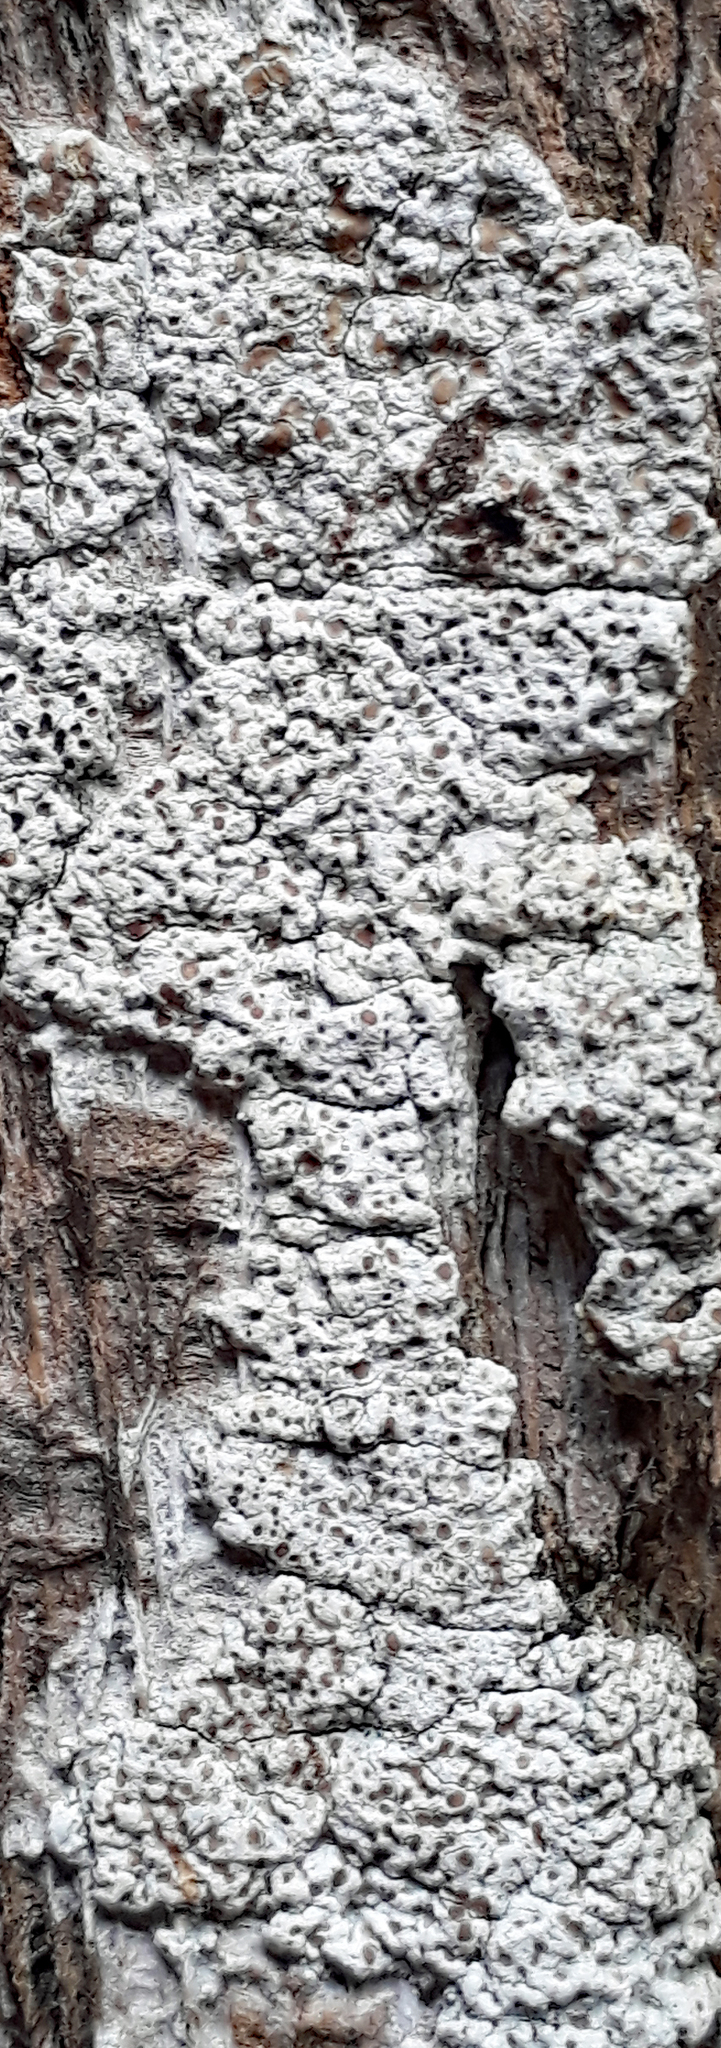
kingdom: Fungi
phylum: Ascomycota
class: Lecanoromycetes
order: Lecanorales
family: Lecanoraceae
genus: Lecanora
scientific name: Lecanora kohu
